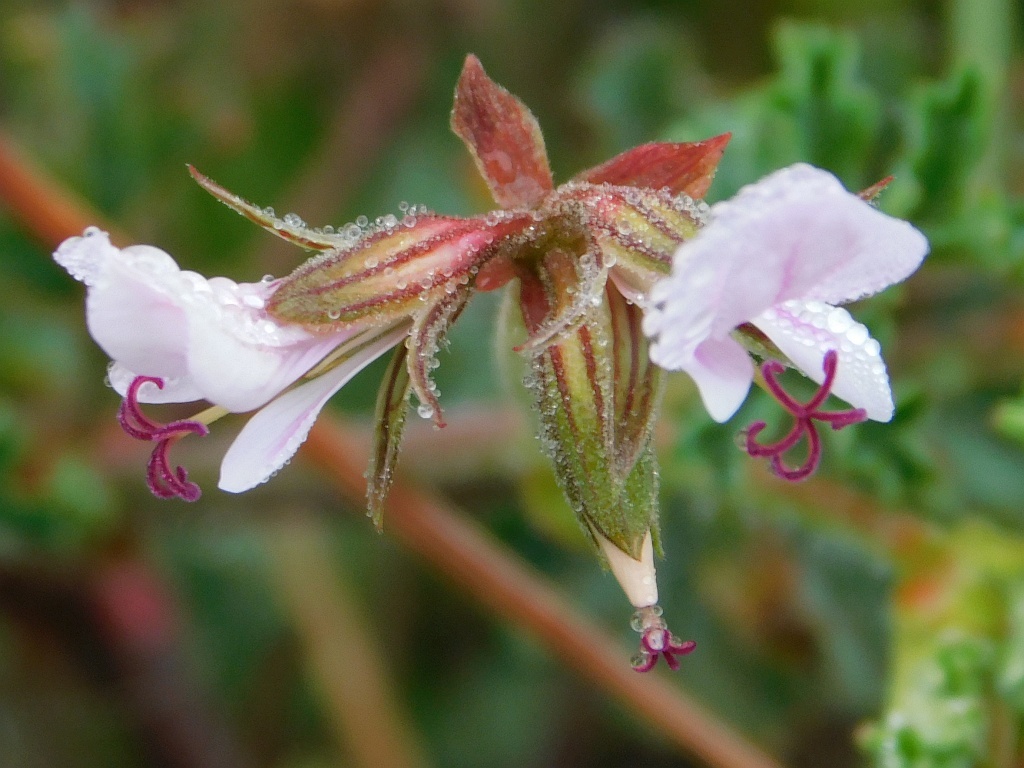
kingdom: Plantae
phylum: Tracheophyta
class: Magnoliopsida
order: Geraniales
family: Geraniaceae
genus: Pelargonium
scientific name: Pelargonium myrrhifolium
